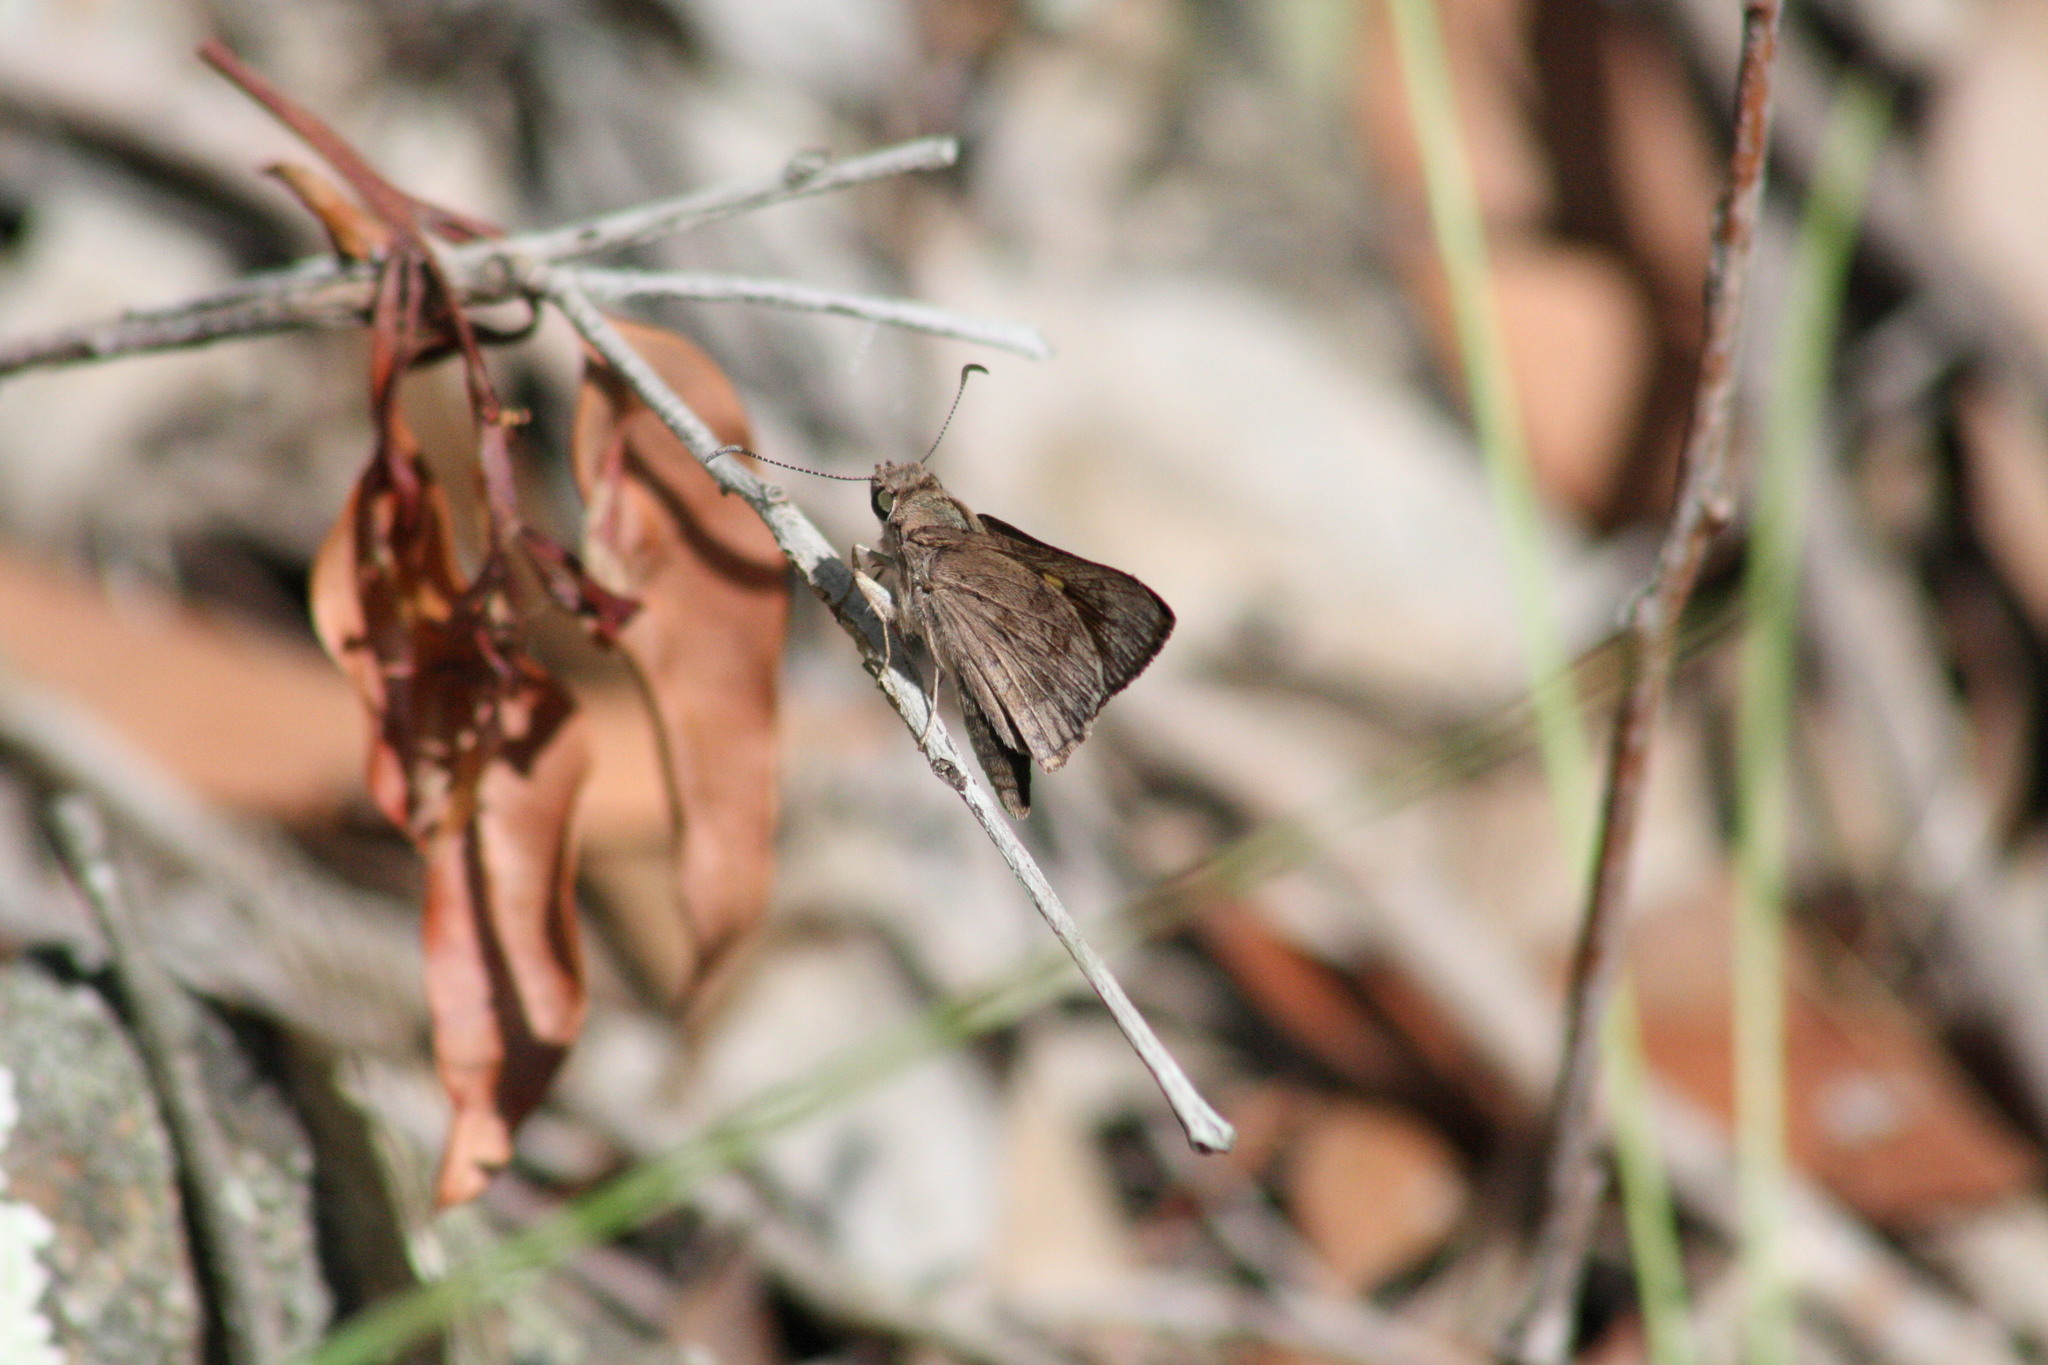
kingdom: Animalia
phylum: Arthropoda
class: Insecta
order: Lepidoptera
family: Hesperiidae
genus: Mesodina
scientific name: Mesodina halyzia
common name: Eastern iris-skipper
